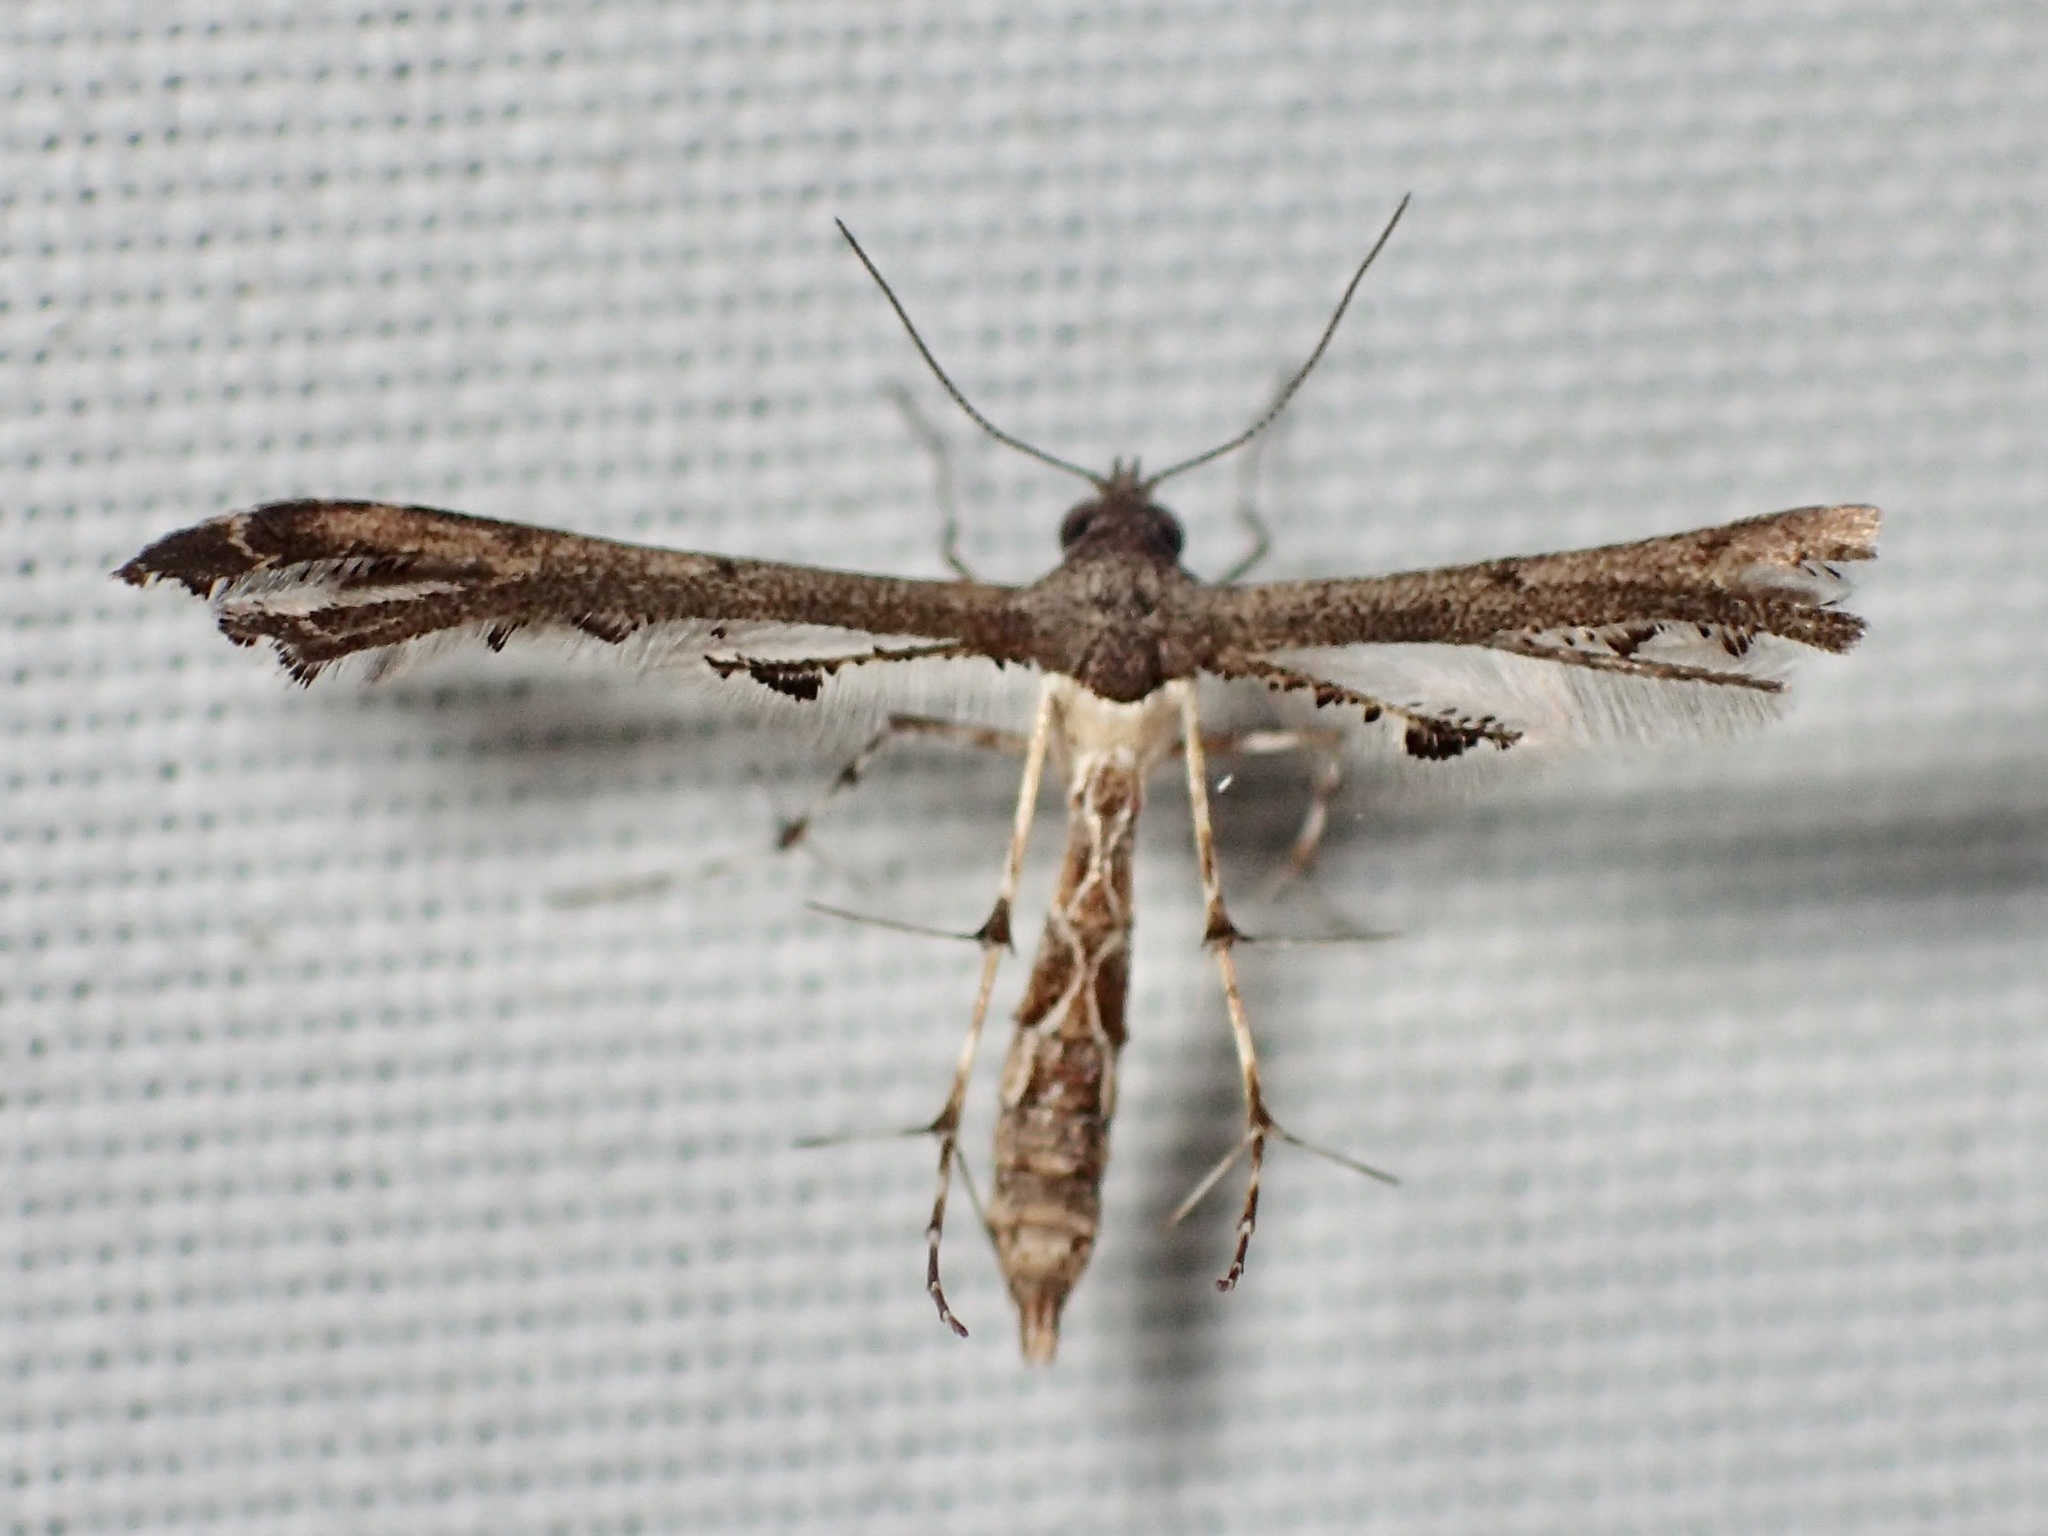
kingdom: Animalia
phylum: Arthropoda
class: Insecta
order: Lepidoptera
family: Pterophoridae
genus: Michaelophorus
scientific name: Michaelophorus indentatus
